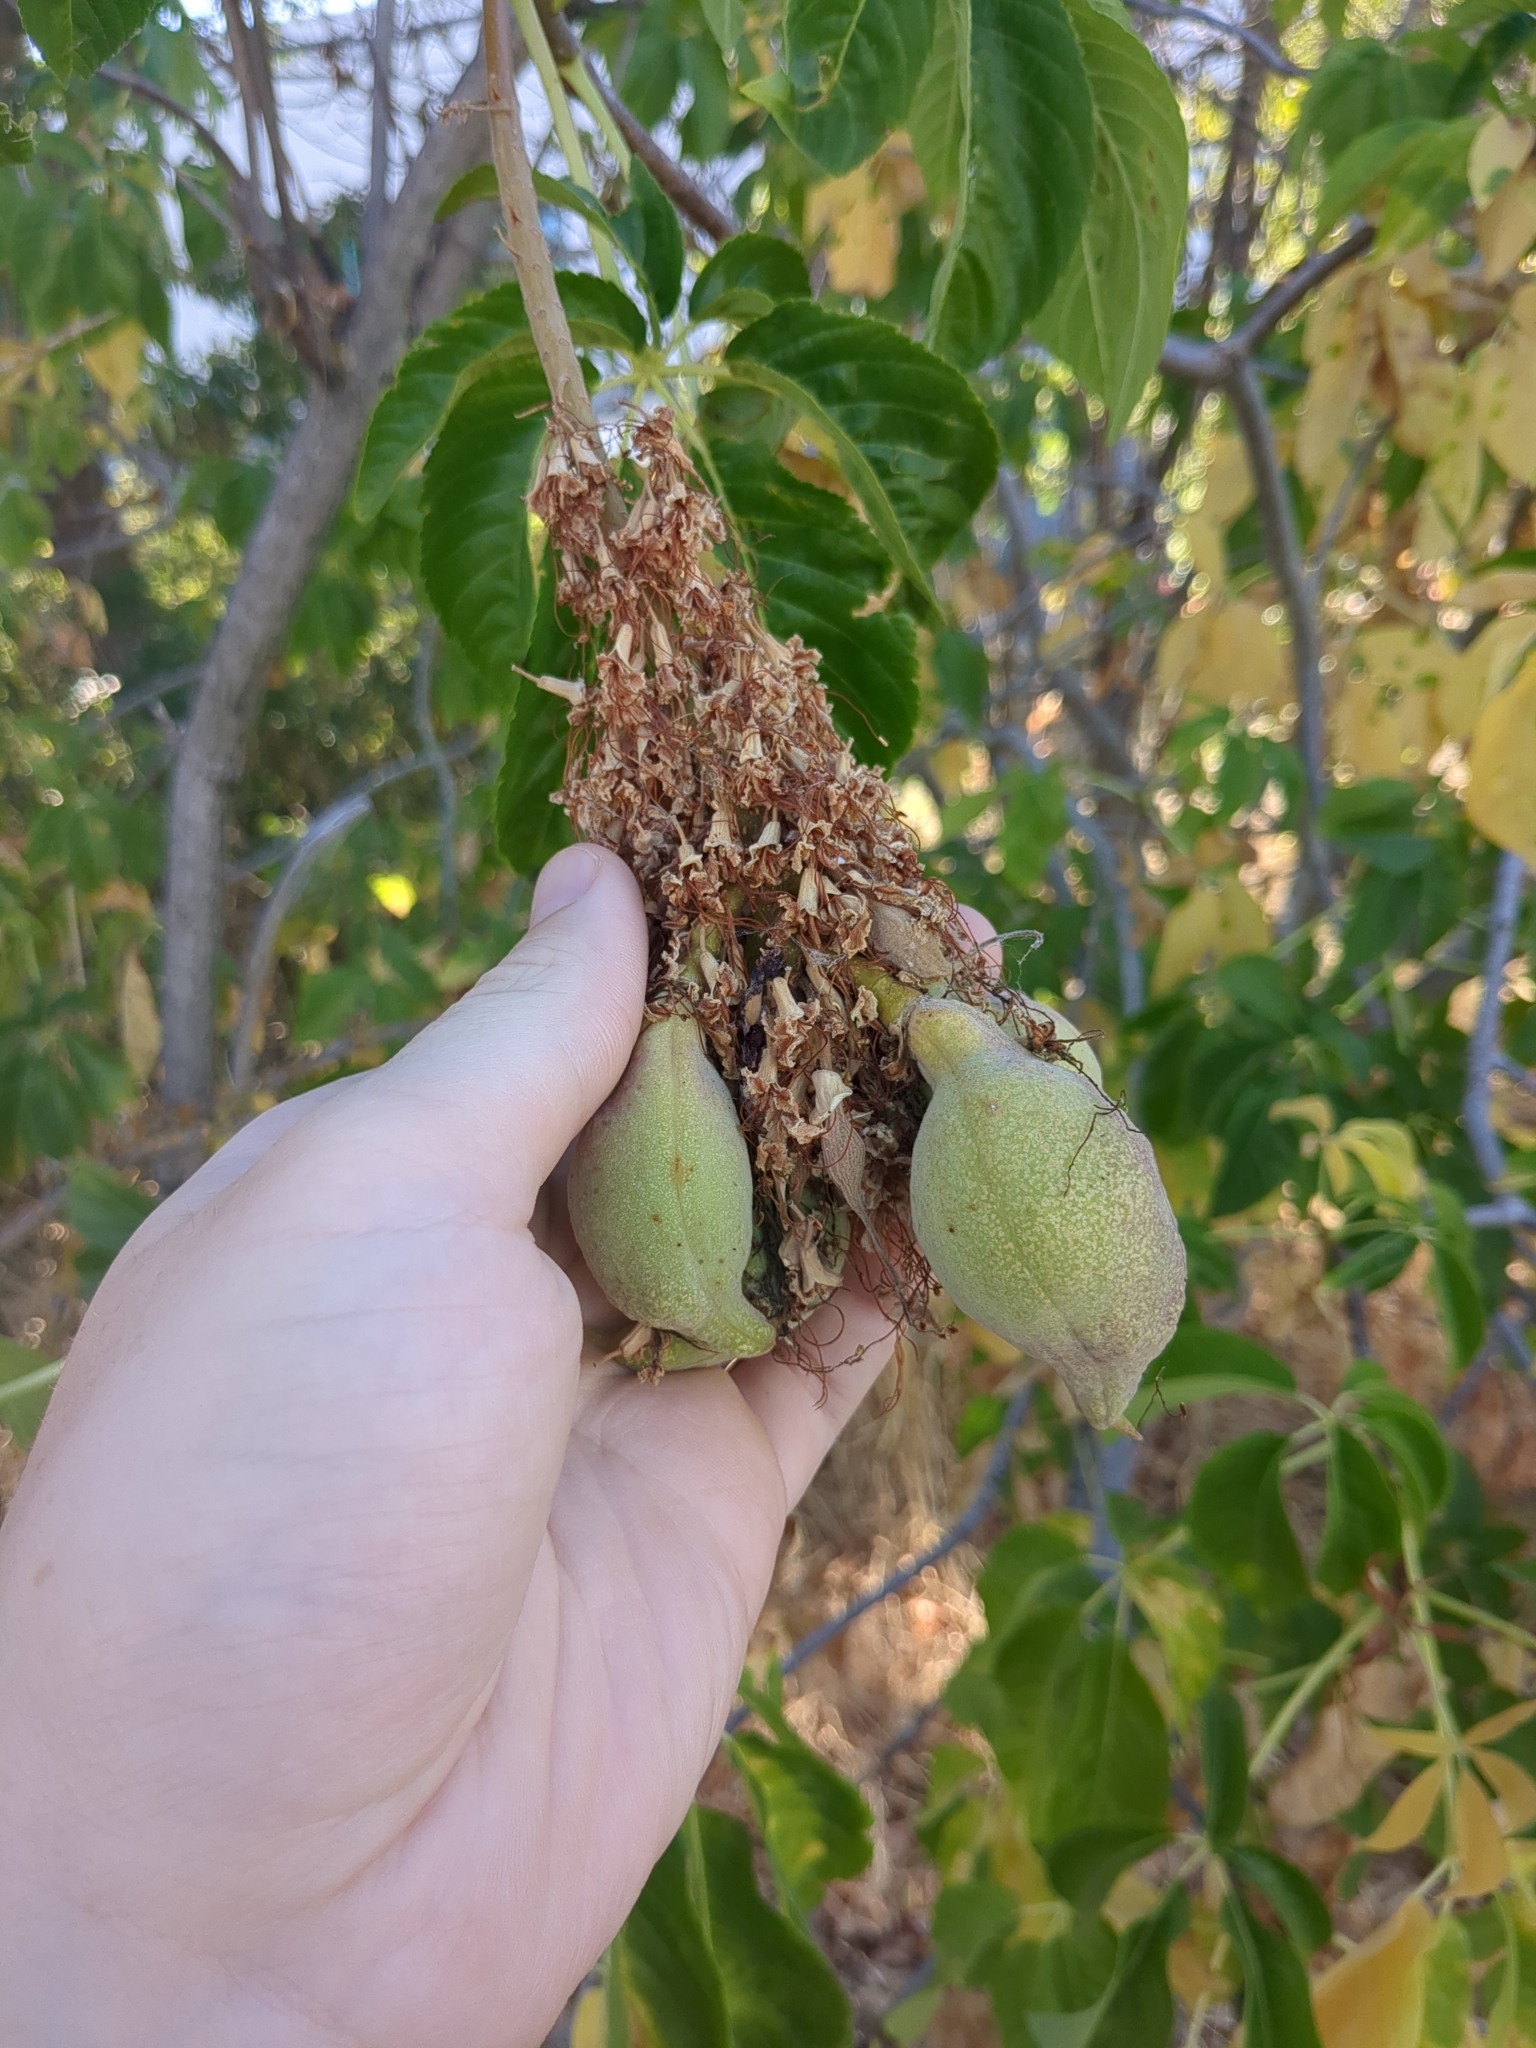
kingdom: Plantae
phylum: Tracheophyta
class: Magnoliopsida
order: Sapindales
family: Sapindaceae
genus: Aesculus
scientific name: Aesculus californica
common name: California buckeye
